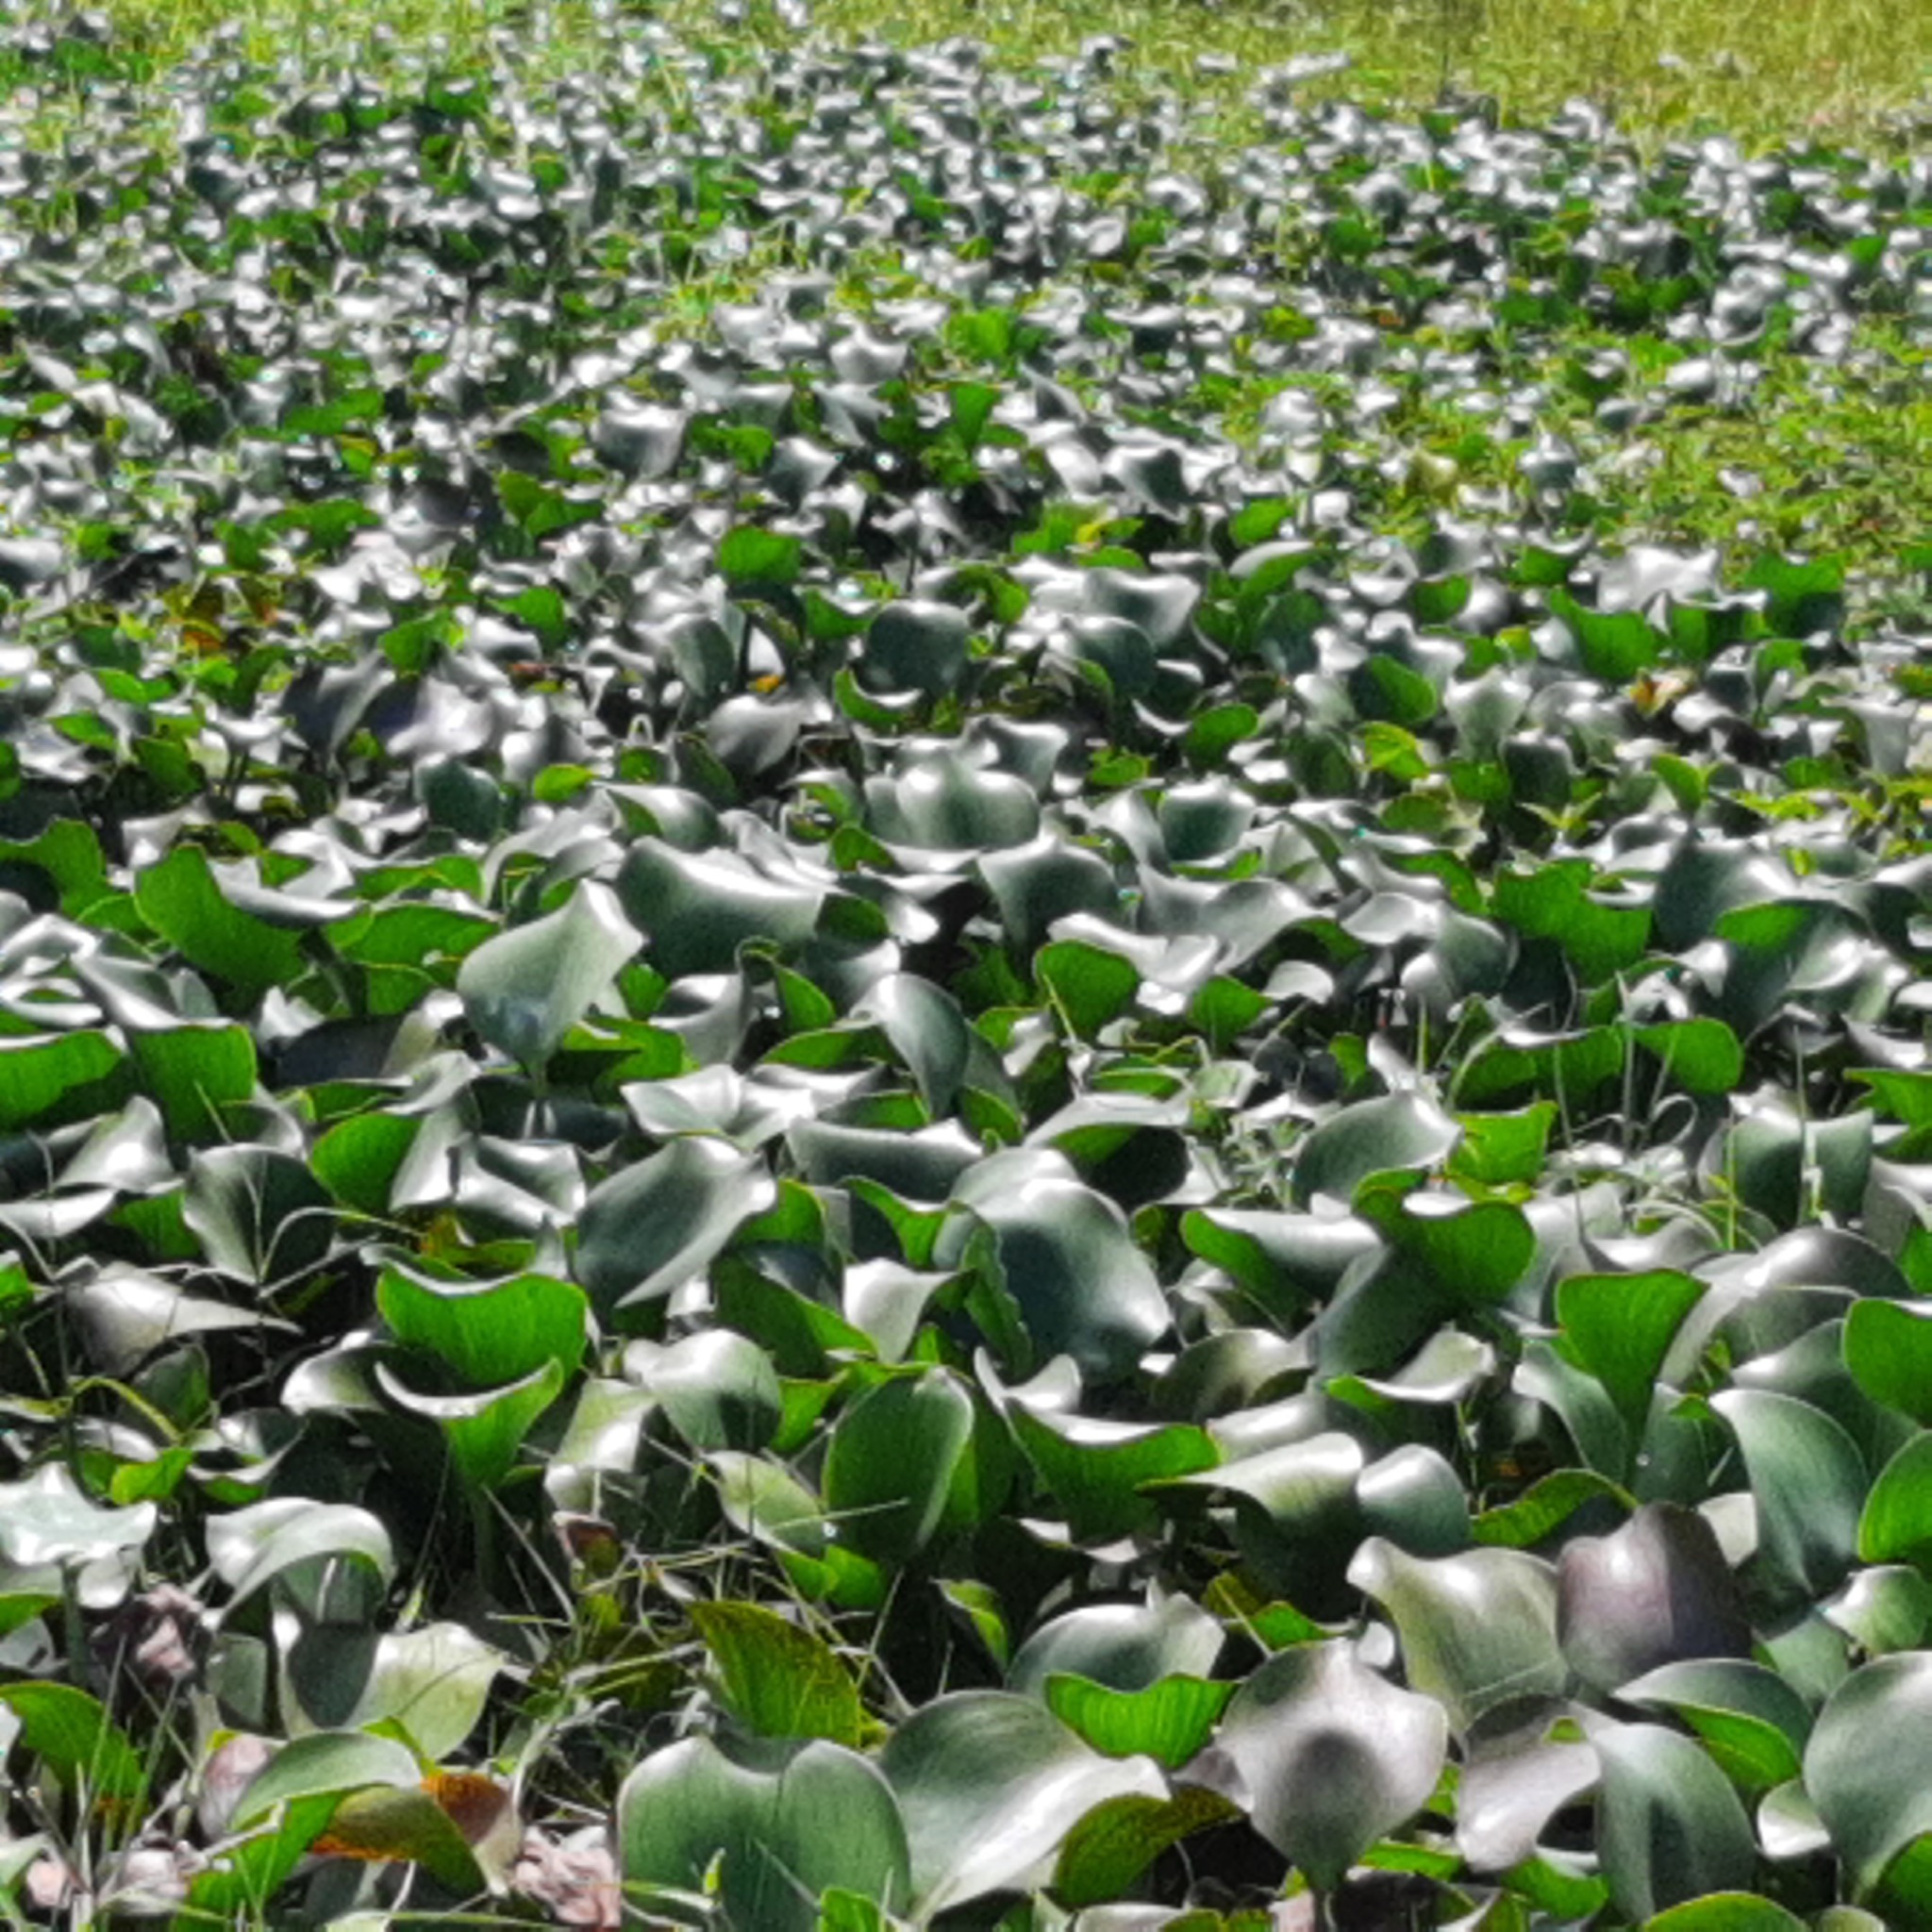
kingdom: Plantae
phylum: Tracheophyta
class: Liliopsida
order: Commelinales
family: Pontederiaceae
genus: Pontederia
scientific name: Pontederia crassipes
